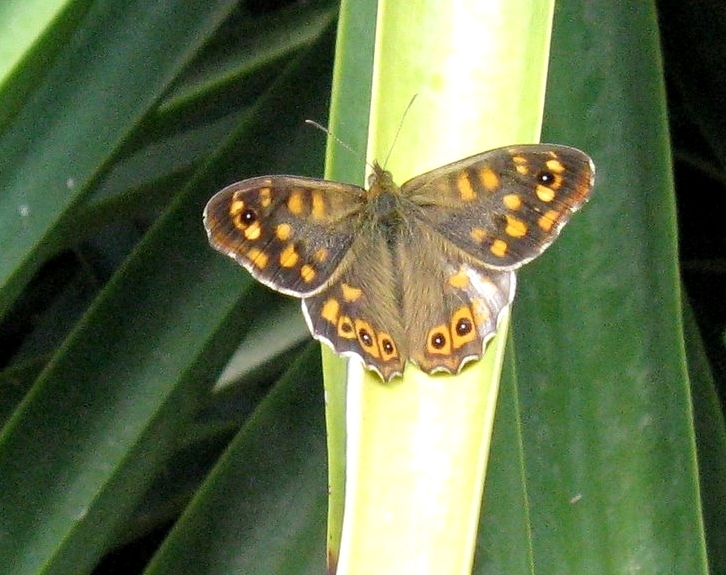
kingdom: Animalia
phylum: Arthropoda
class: Insecta
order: Lepidoptera
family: Nymphalidae
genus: Pararge
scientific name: Pararge aegeria
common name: Speckled wood
